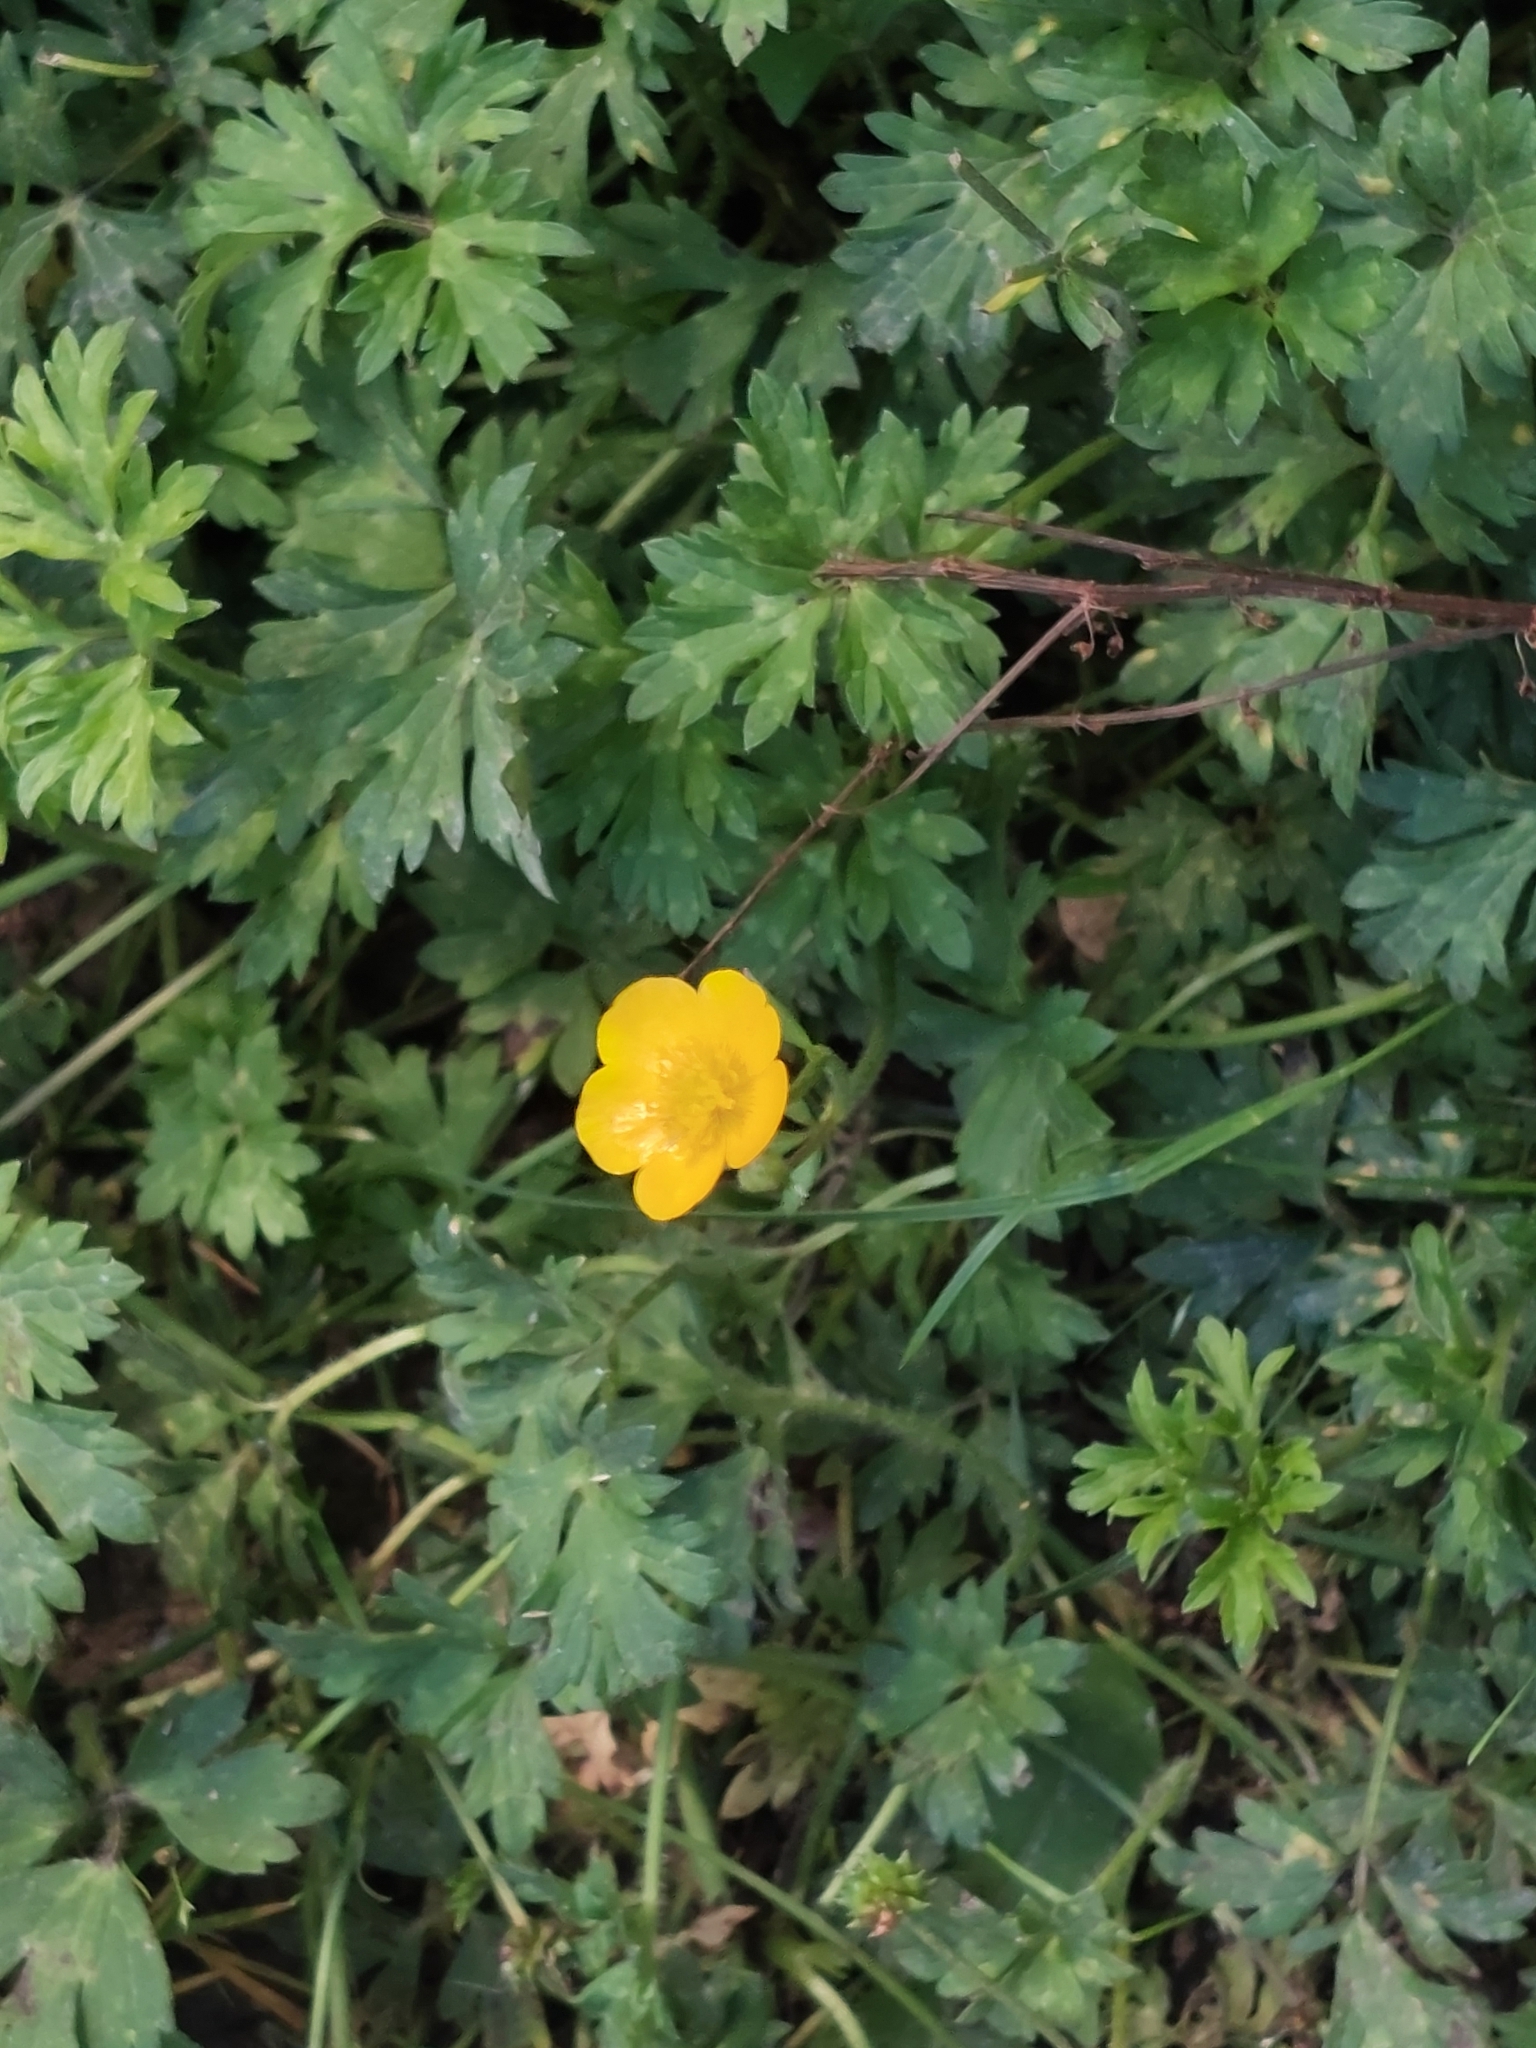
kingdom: Plantae
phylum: Tracheophyta
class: Magnoliopsida
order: Ranunculales
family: Ranunculaceae
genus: Ranunculus
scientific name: Ranunculus repens
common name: Creeping buttercup
